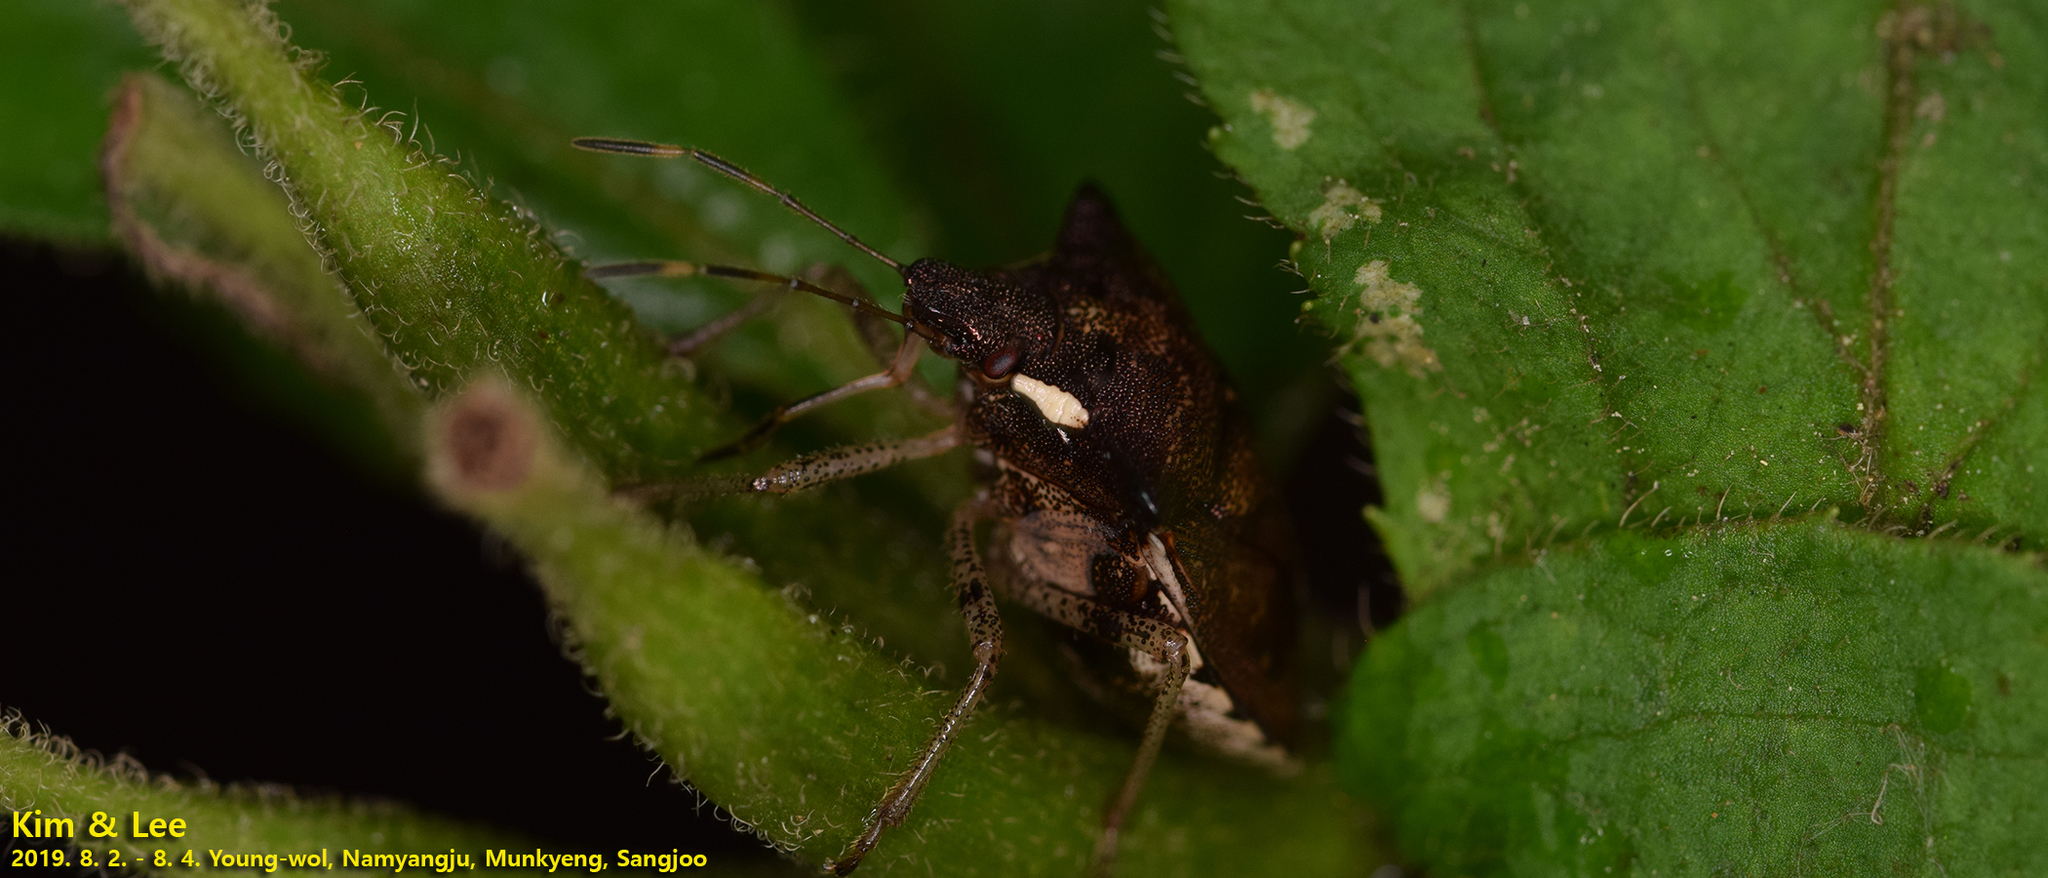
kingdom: Animalia
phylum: Arthropoda
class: Insecta
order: Hemiptera
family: Pentatomidae
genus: Carbula
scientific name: Carbula putoni
